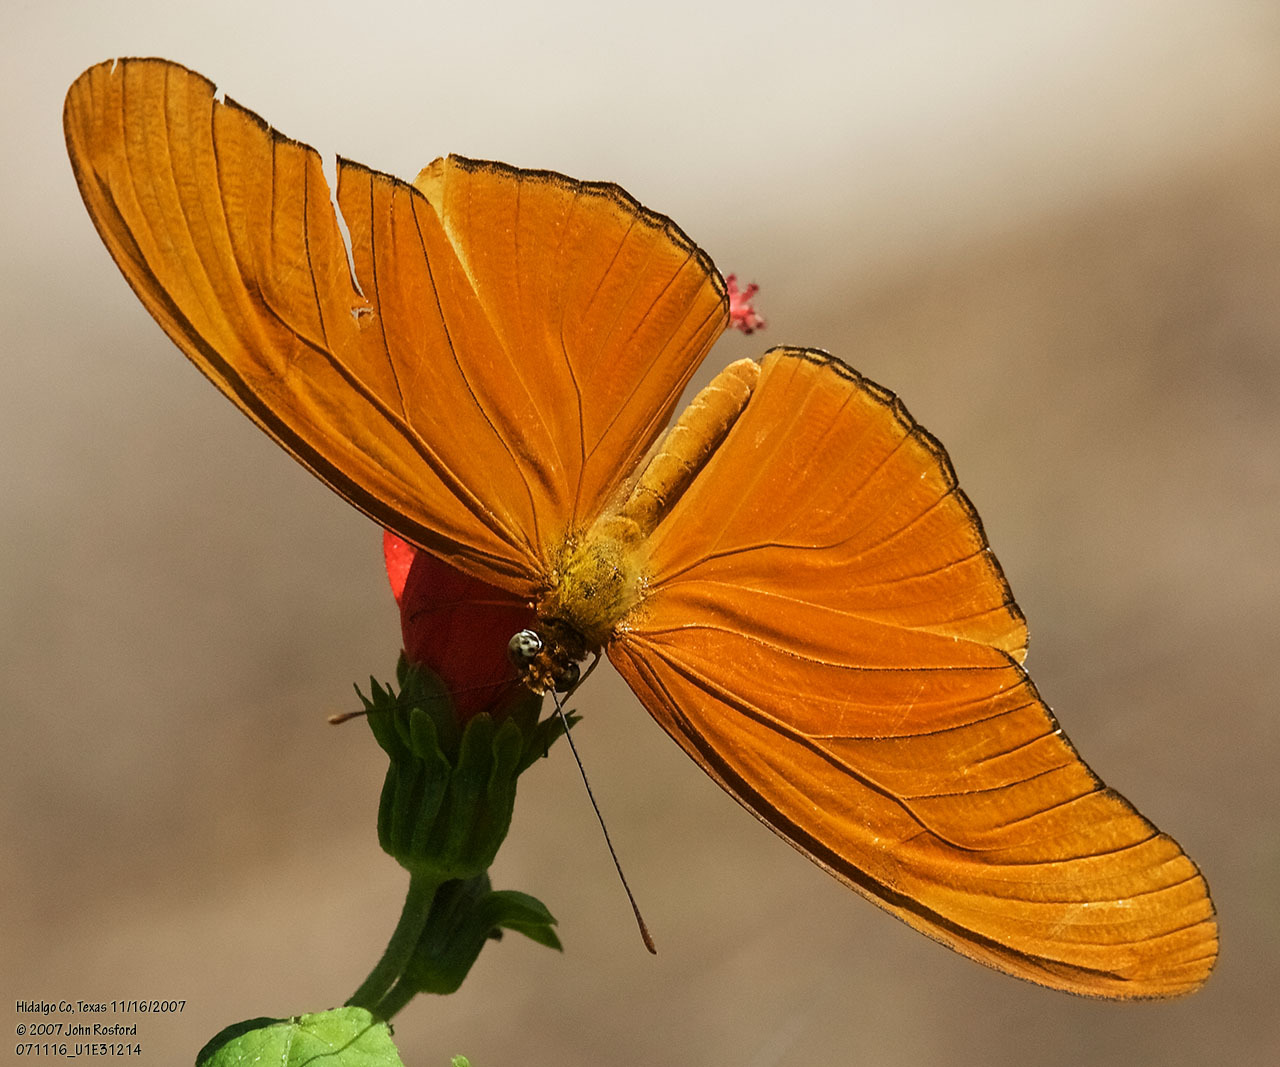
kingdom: Animalia
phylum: Arthropoda
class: Insecta
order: Lepidoptera
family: Nymphalidae
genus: Dryas
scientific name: Dryas iulia
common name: Flambeau
